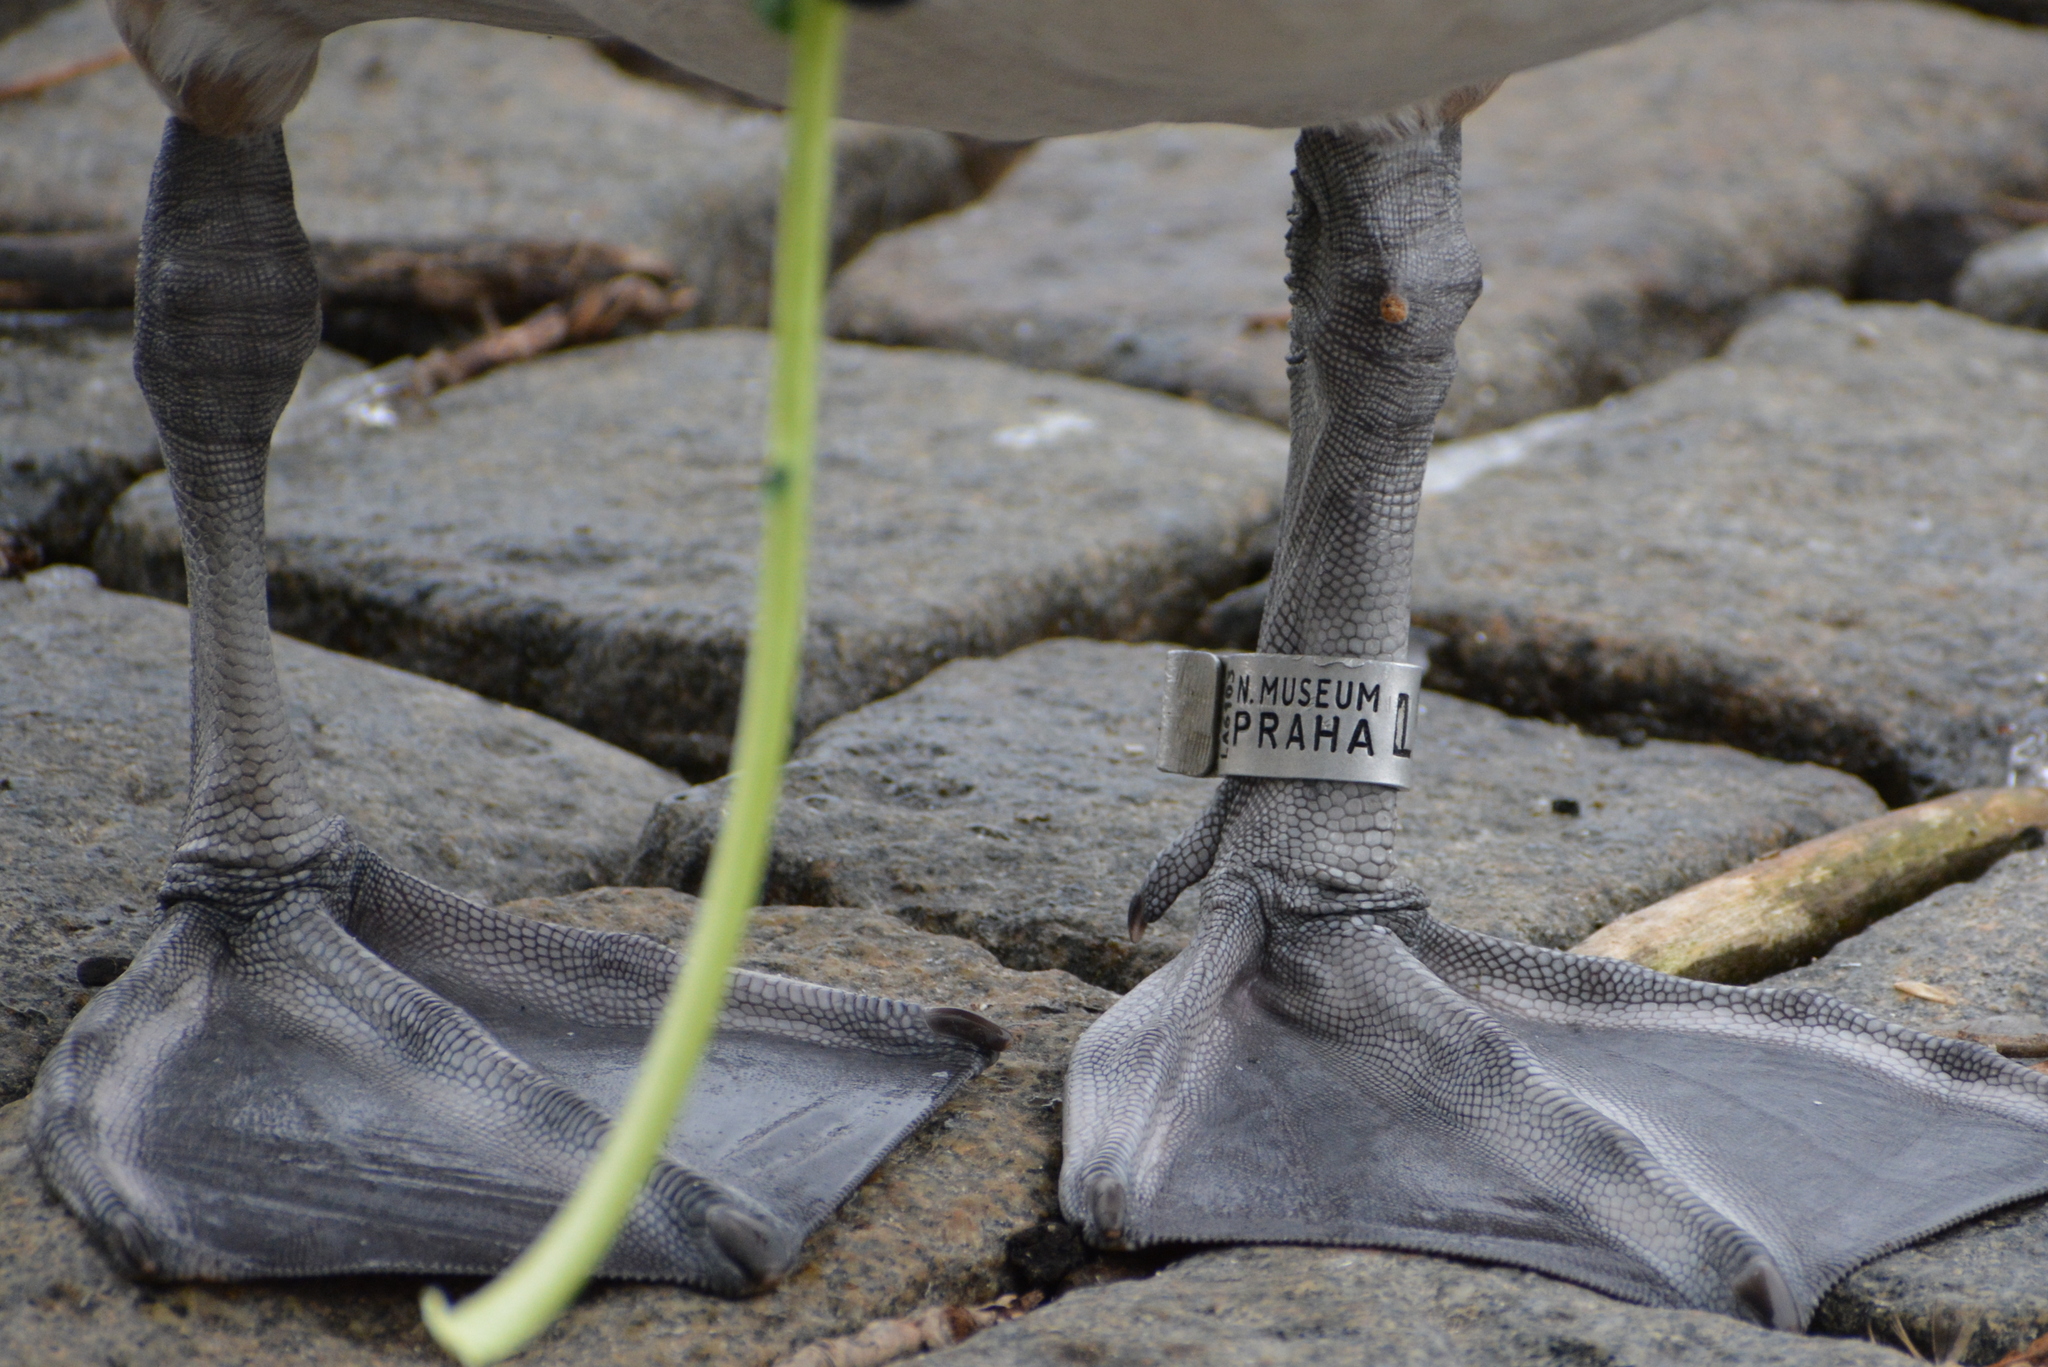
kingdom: Animalia
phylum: Chordata
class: Aves
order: Anseriformes
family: Anatidae
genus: Cygnus
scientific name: Cygnus olor
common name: Mute swan
